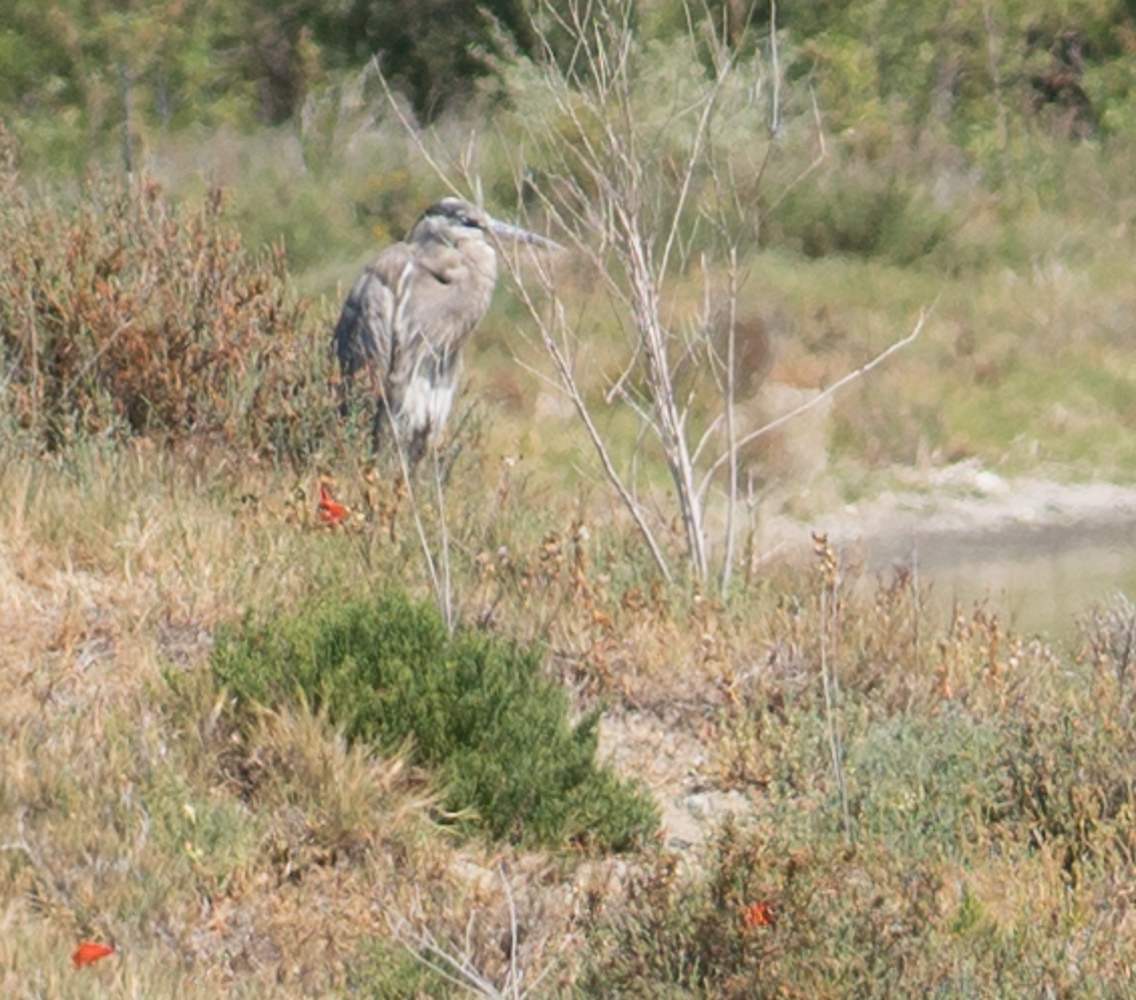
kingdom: Animalia
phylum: Chordata
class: Aves
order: Pelecaniformes
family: Ardeidae
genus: Ardea
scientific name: Ardea herodias
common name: Great blue heron
